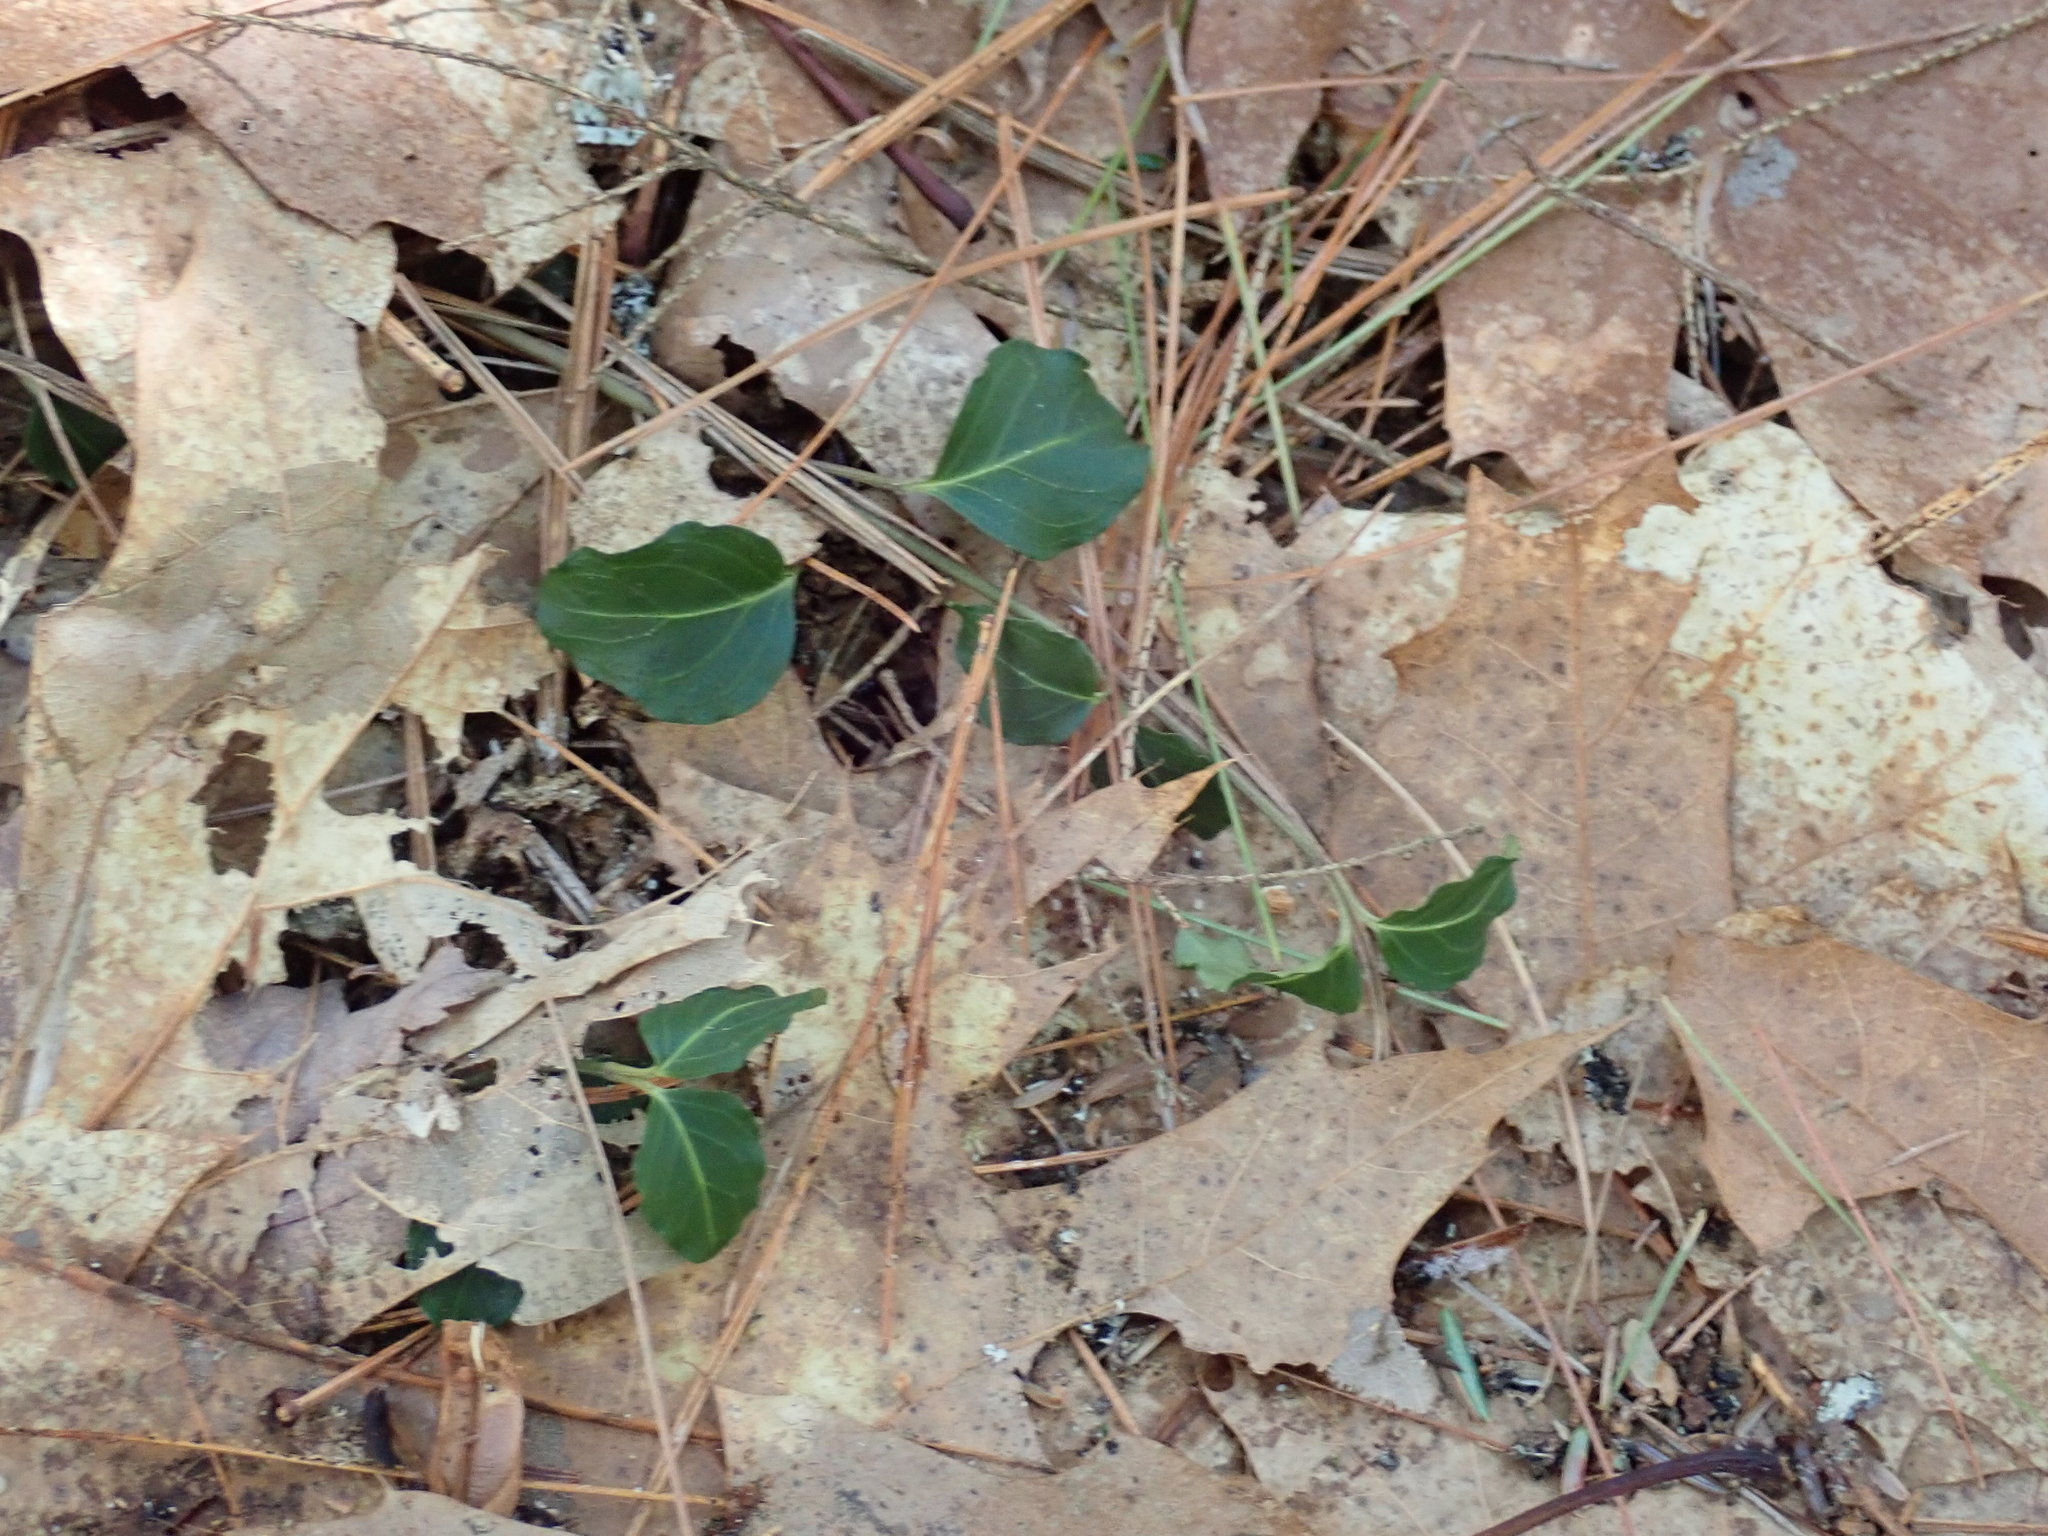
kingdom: Plantae
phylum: Tracheophyta
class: Magnoliopsida
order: Gentianales
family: Rubiaceae
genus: Mitchella
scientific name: Mitchella repens
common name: Partridge-berry
